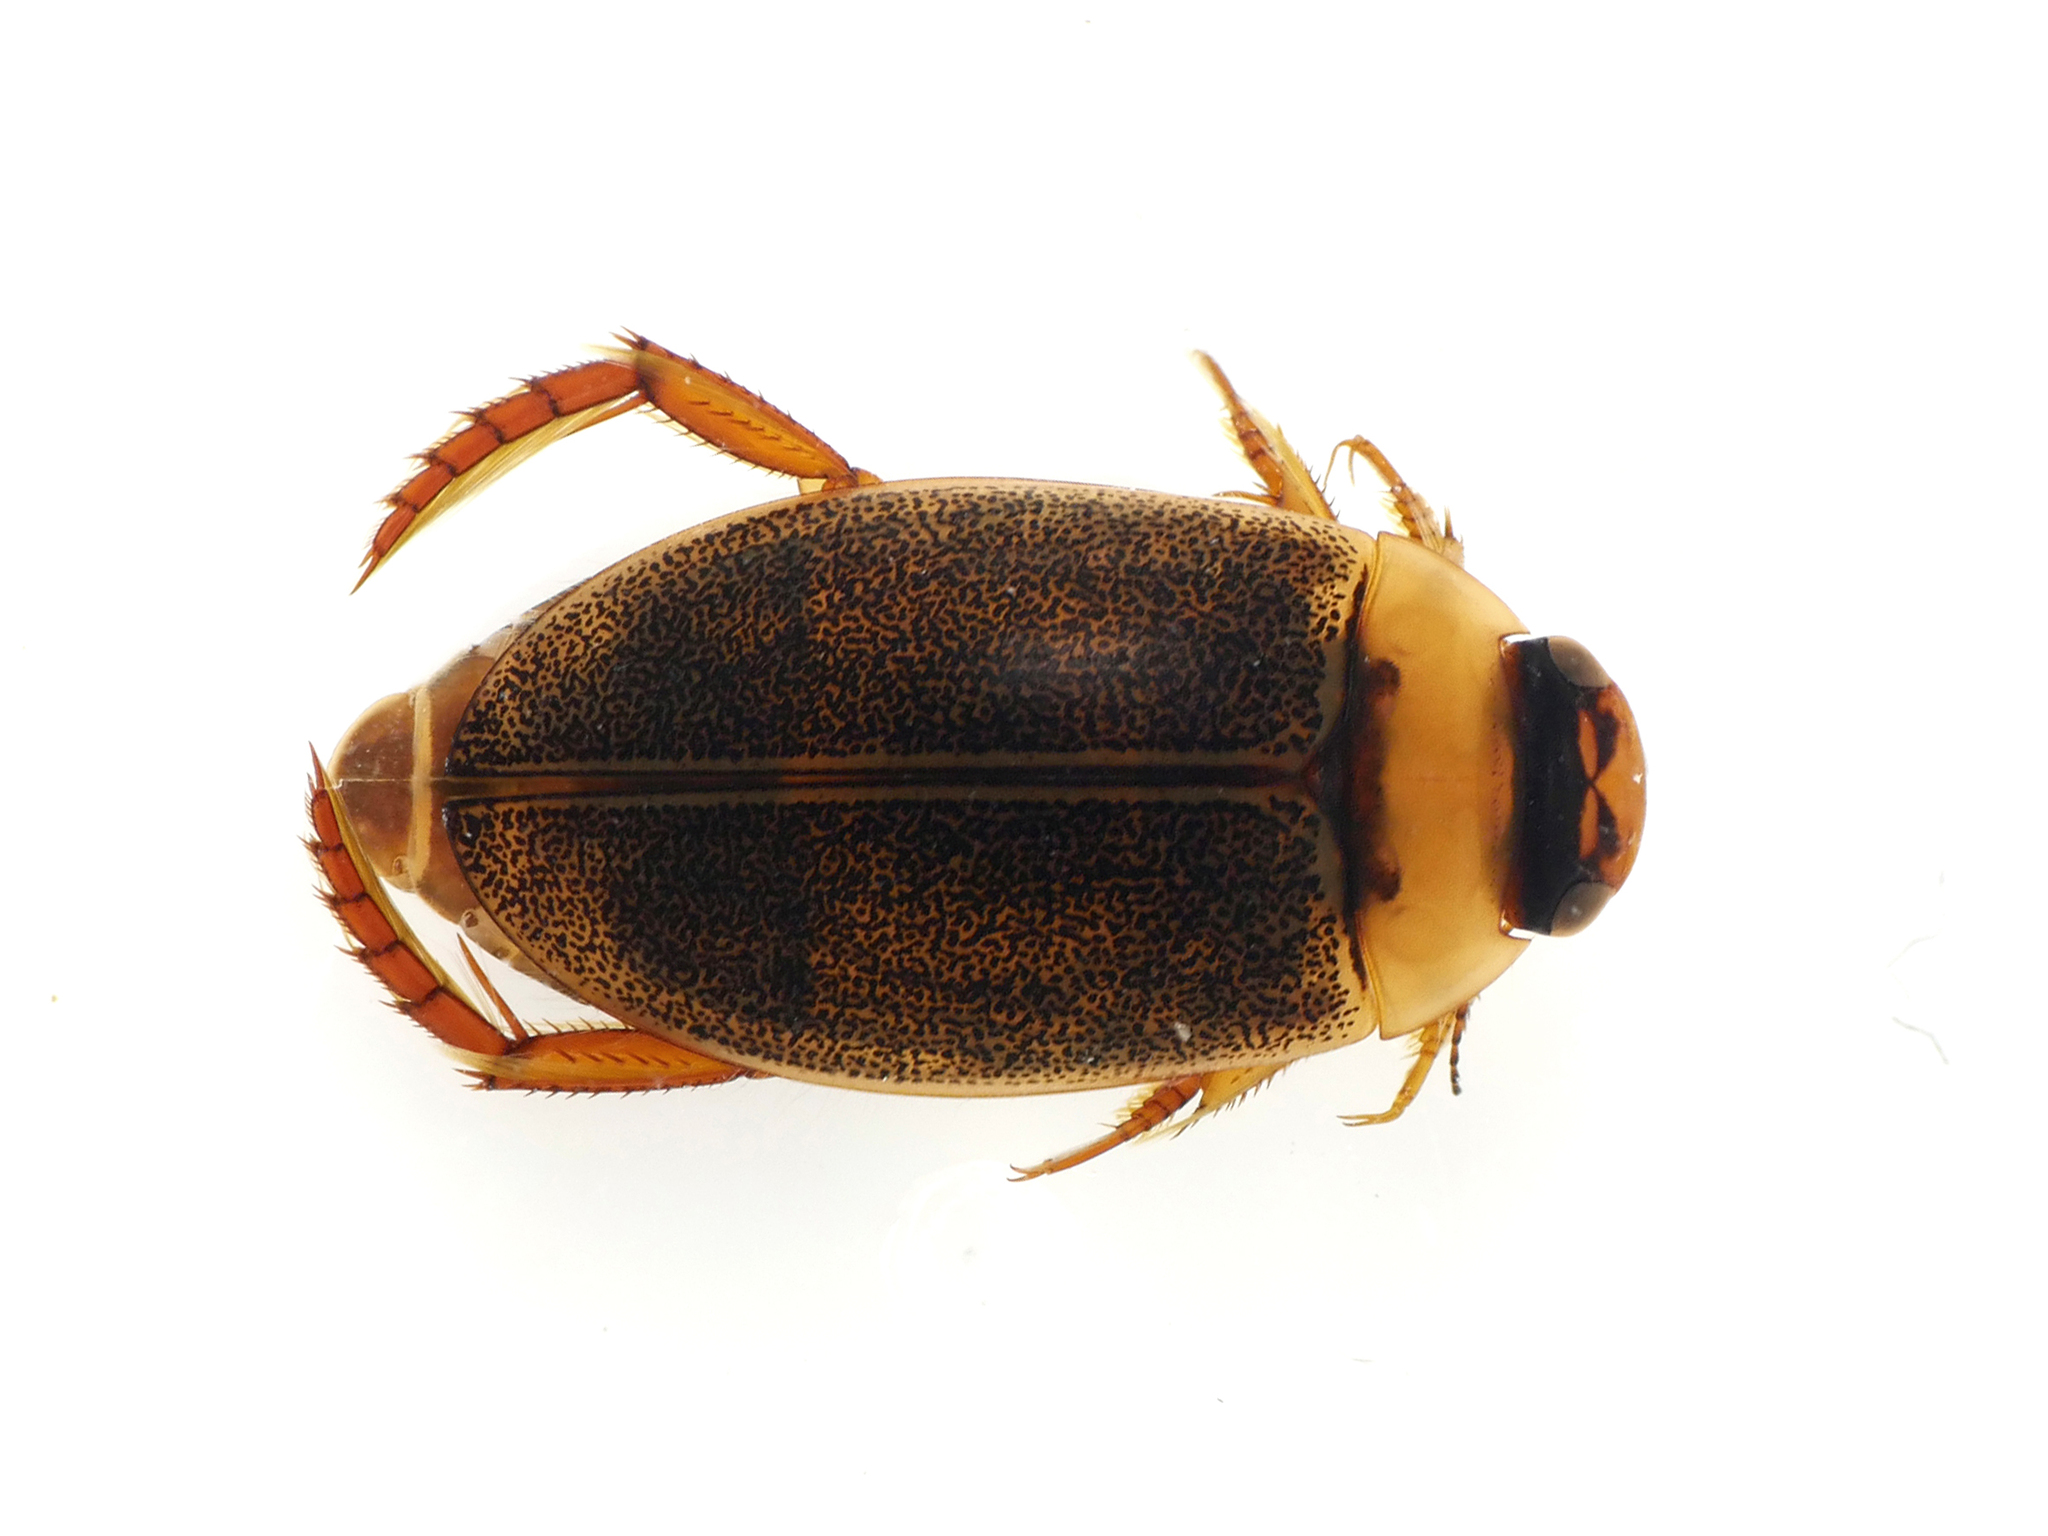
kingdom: Animalia
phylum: Arthropoda
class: Insecta
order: Coleoptera
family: Dytiscidae
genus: Rhantus
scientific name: Rhantus exsoletus
